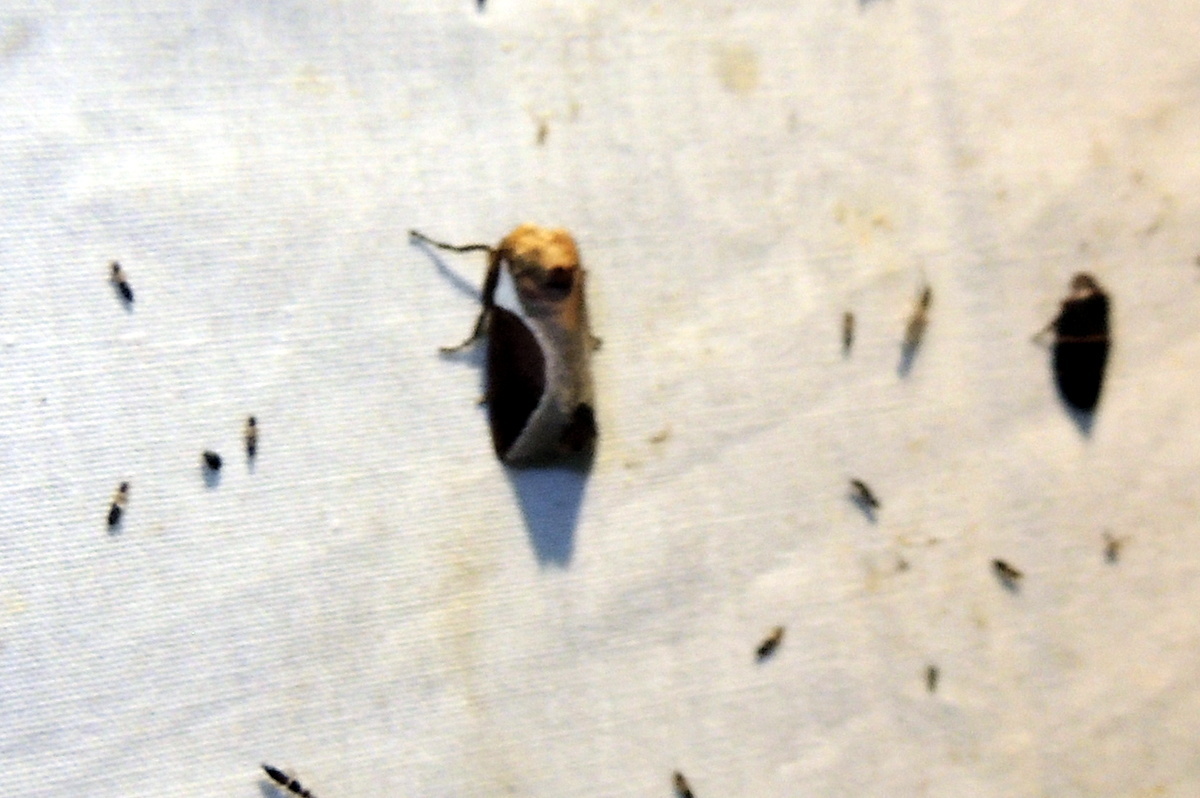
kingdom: Animalia
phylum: Arthropoda
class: Insecta
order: Lepidoptera
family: Limacodidae
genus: Prolimacodes
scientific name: Prolimacodes badia
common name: Skiff moth
